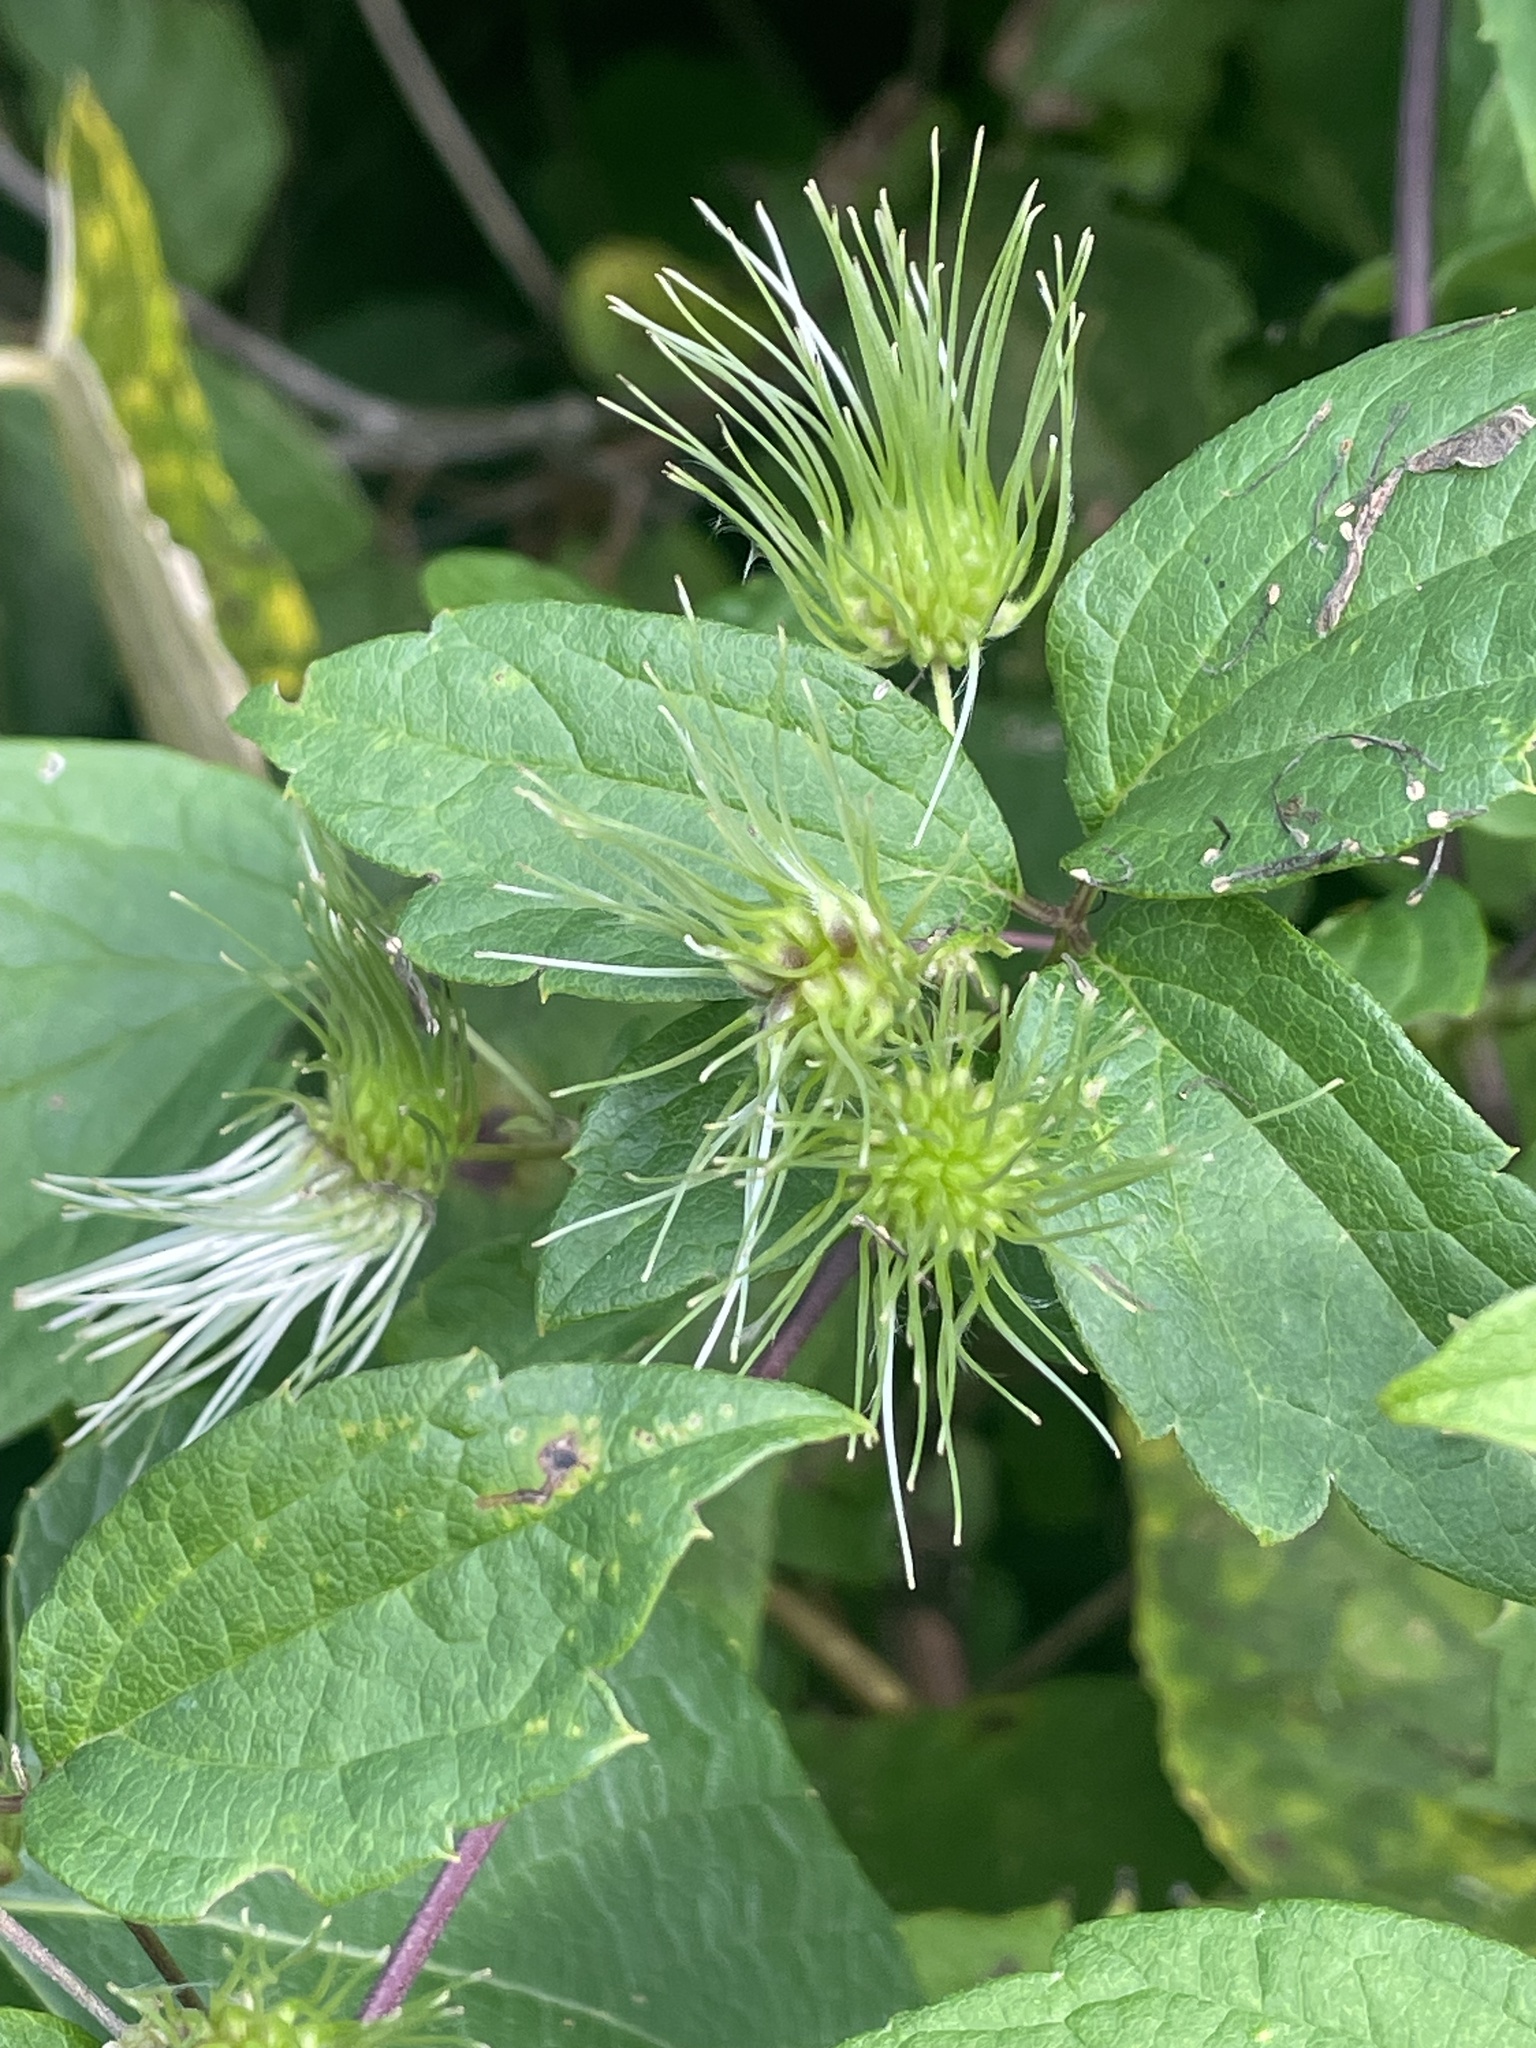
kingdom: Plantae
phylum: Tracheophyta
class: Magnoliopsida
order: Ranunculales
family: Ranunculaceae
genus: Clematis
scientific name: Clematis virginiana
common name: Virgin's-bower
